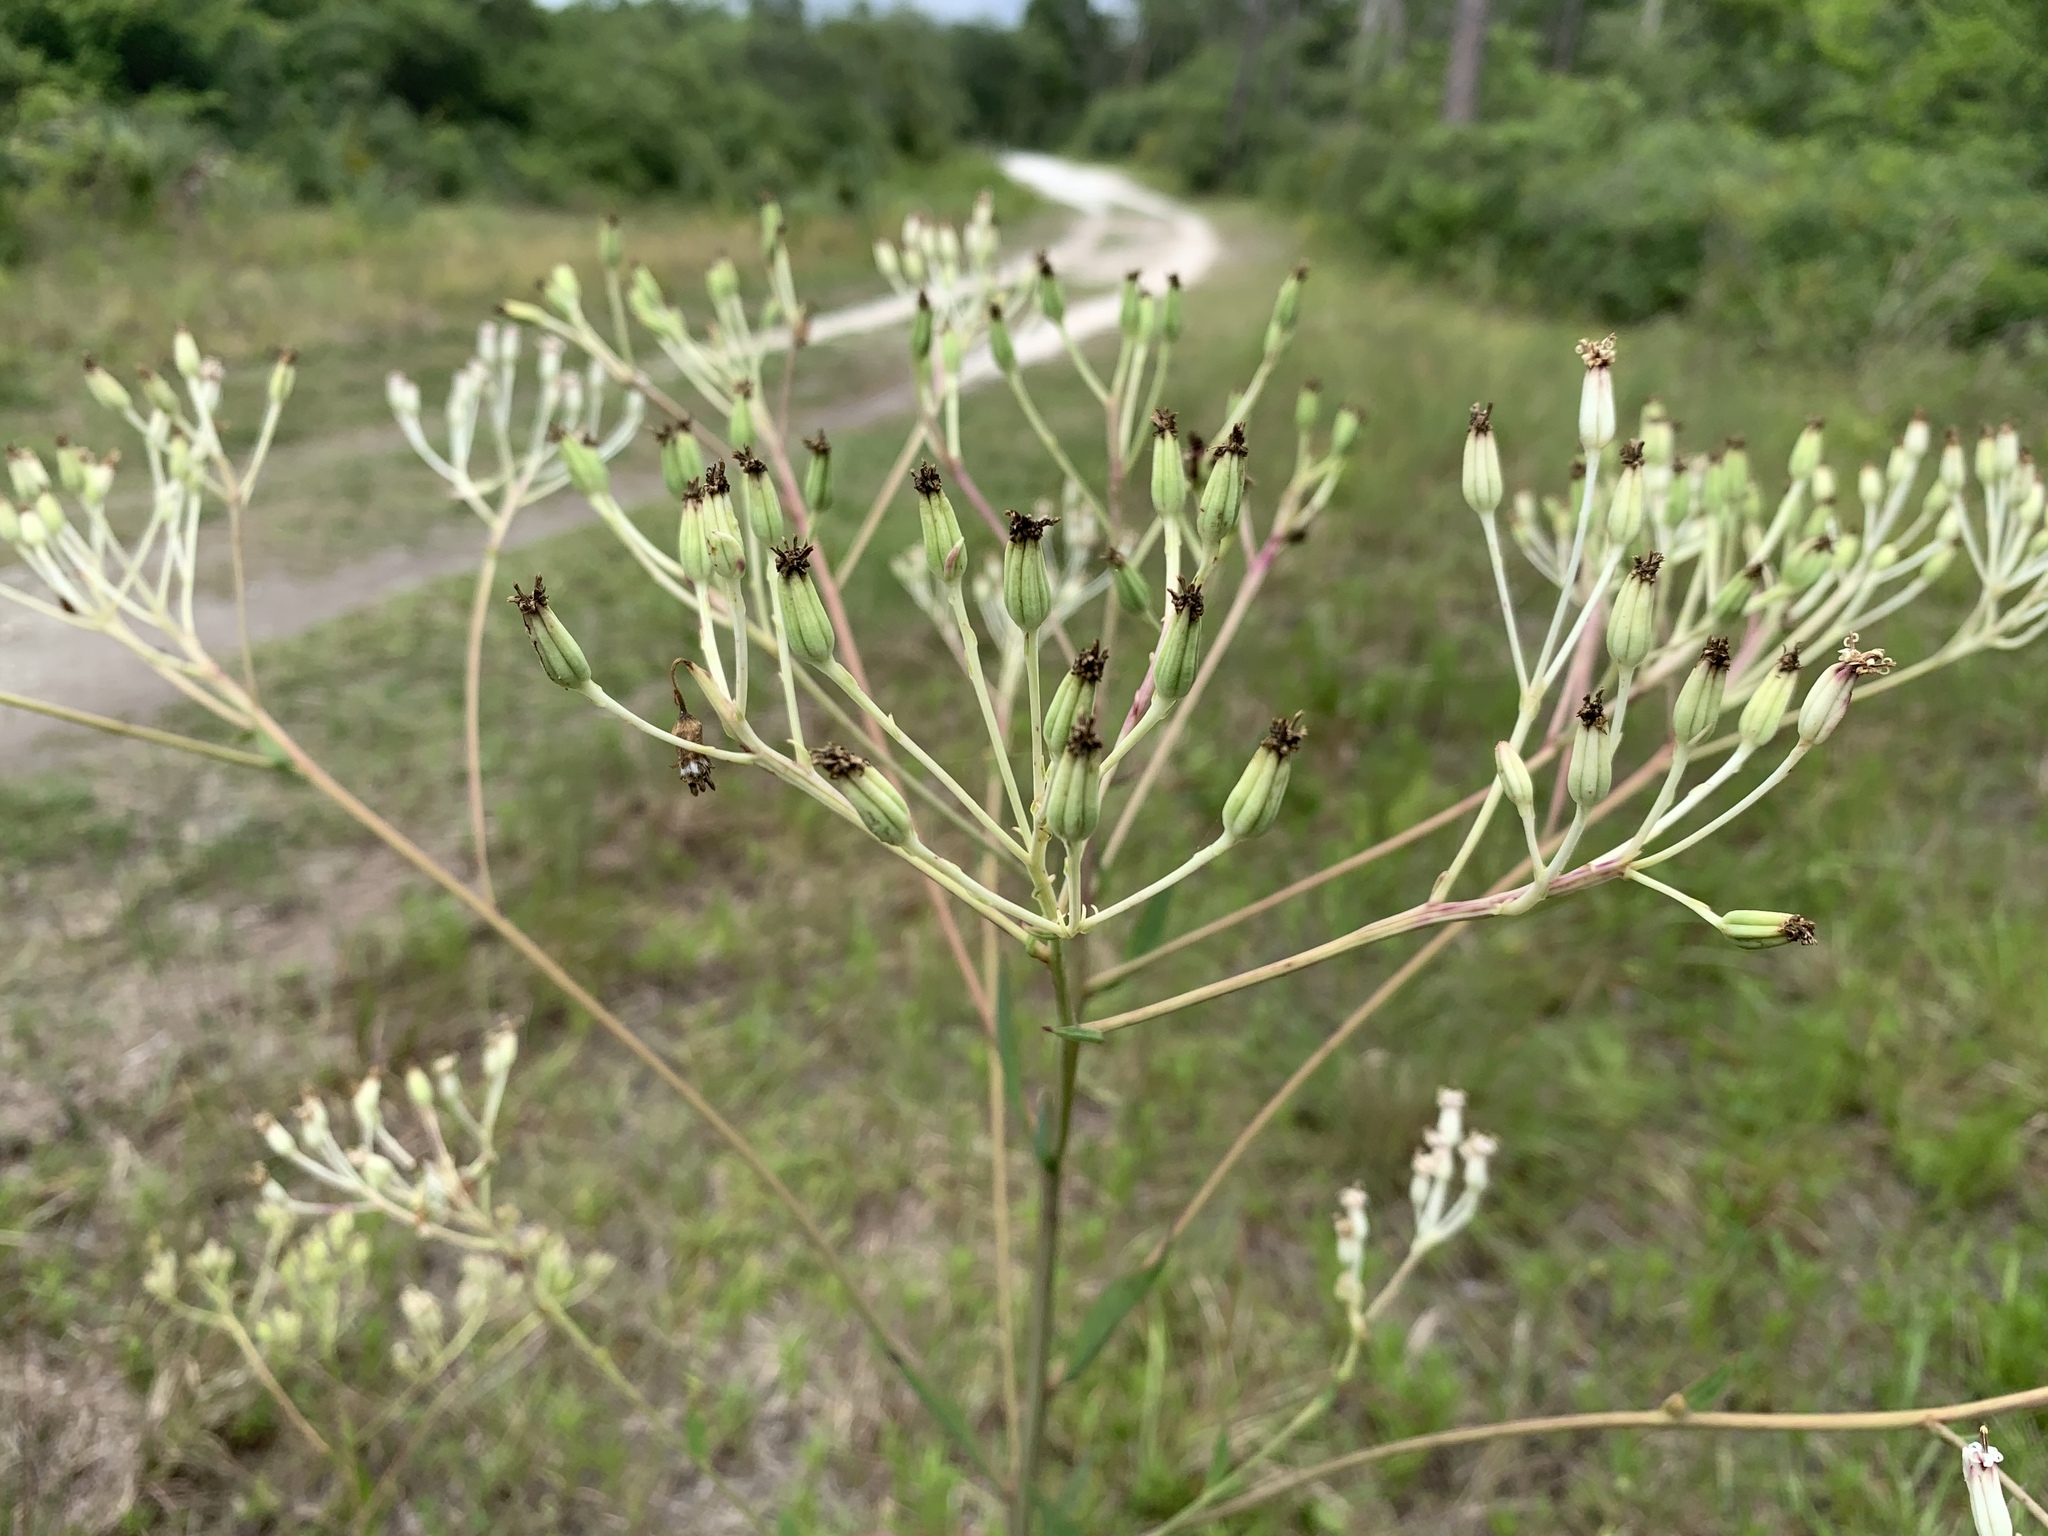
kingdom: Plantae
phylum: Tracheophyta
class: Magnoliopsida
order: Asterales
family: Asteraceae
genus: Arnoglossum
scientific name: Arnoglossum ovatum
